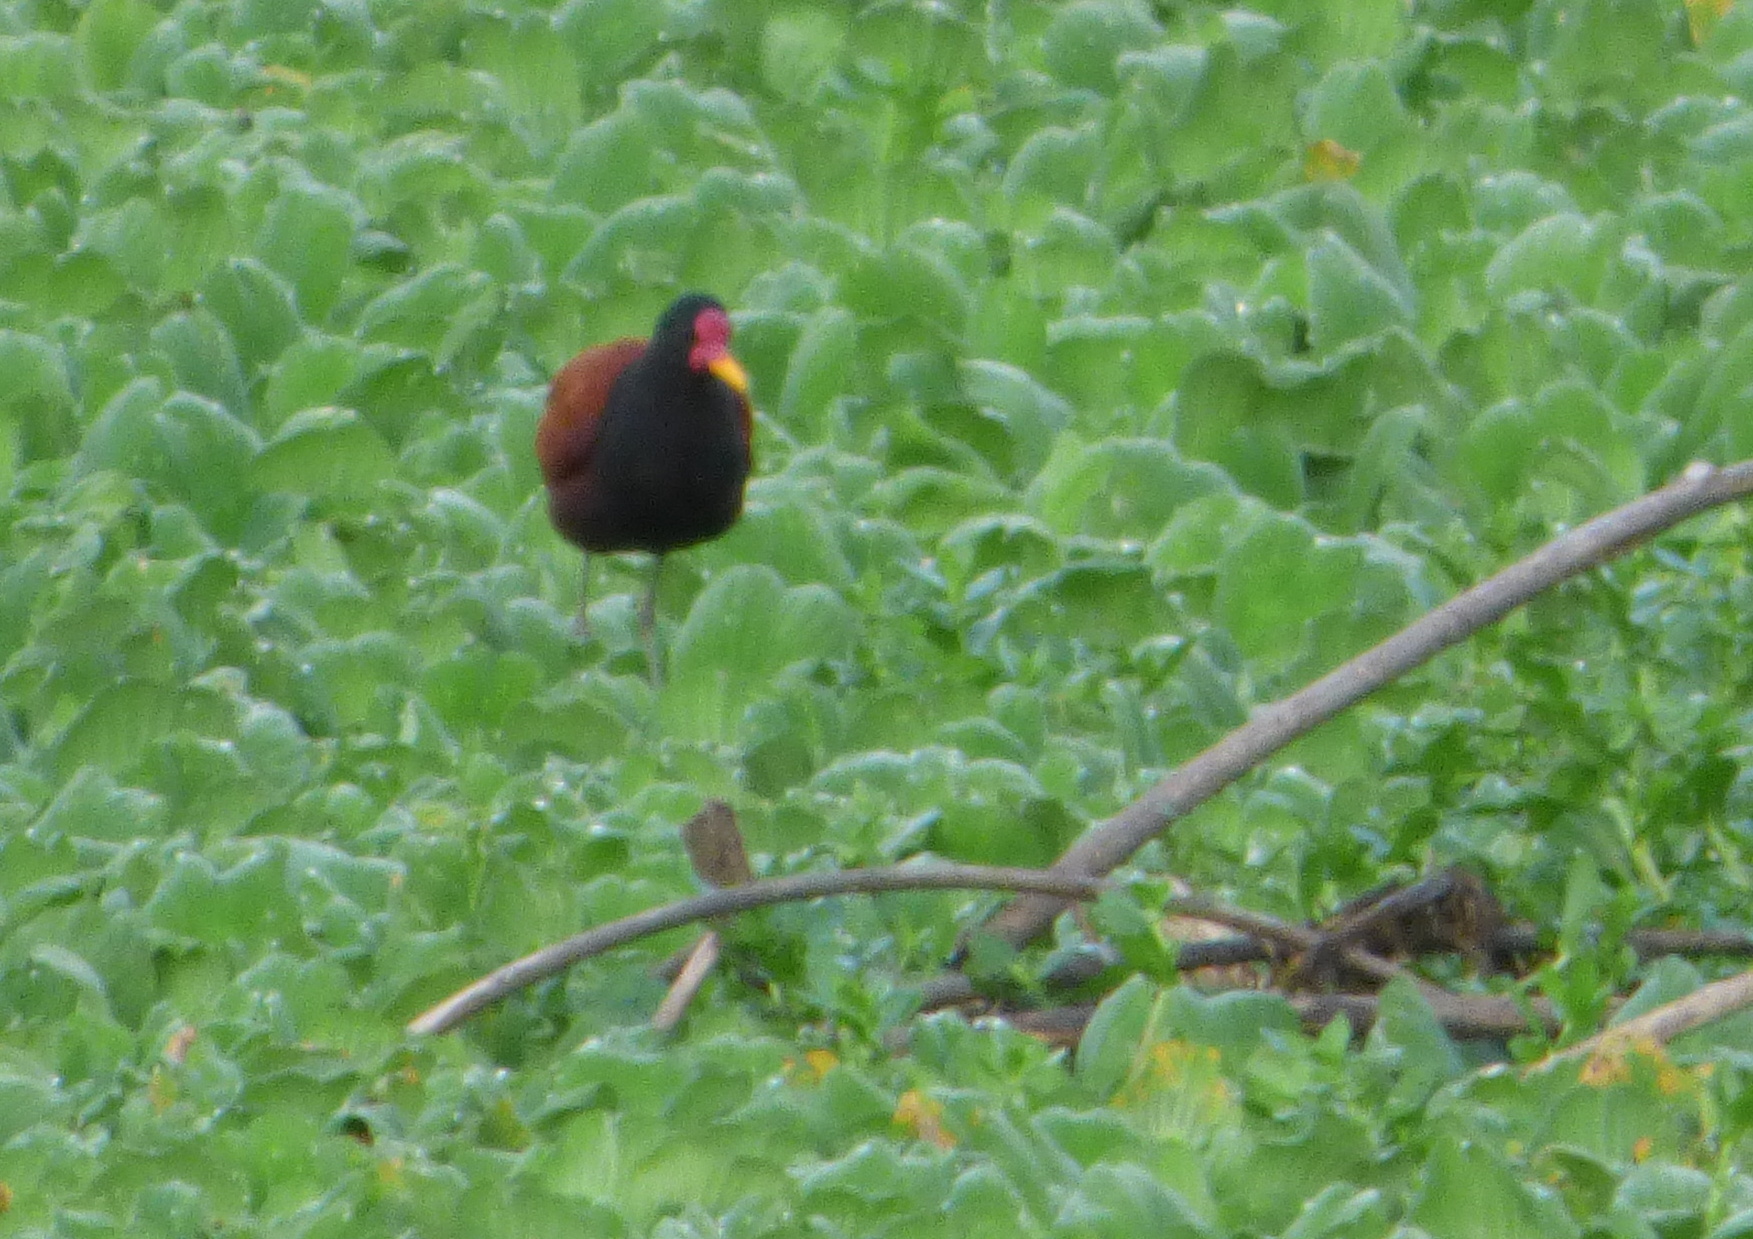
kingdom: Animalia
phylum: Chordata
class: Aves
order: Charadriiformes
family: Jacanidae
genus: Jacana
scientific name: Jacana jacana
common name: Wattled jacana
